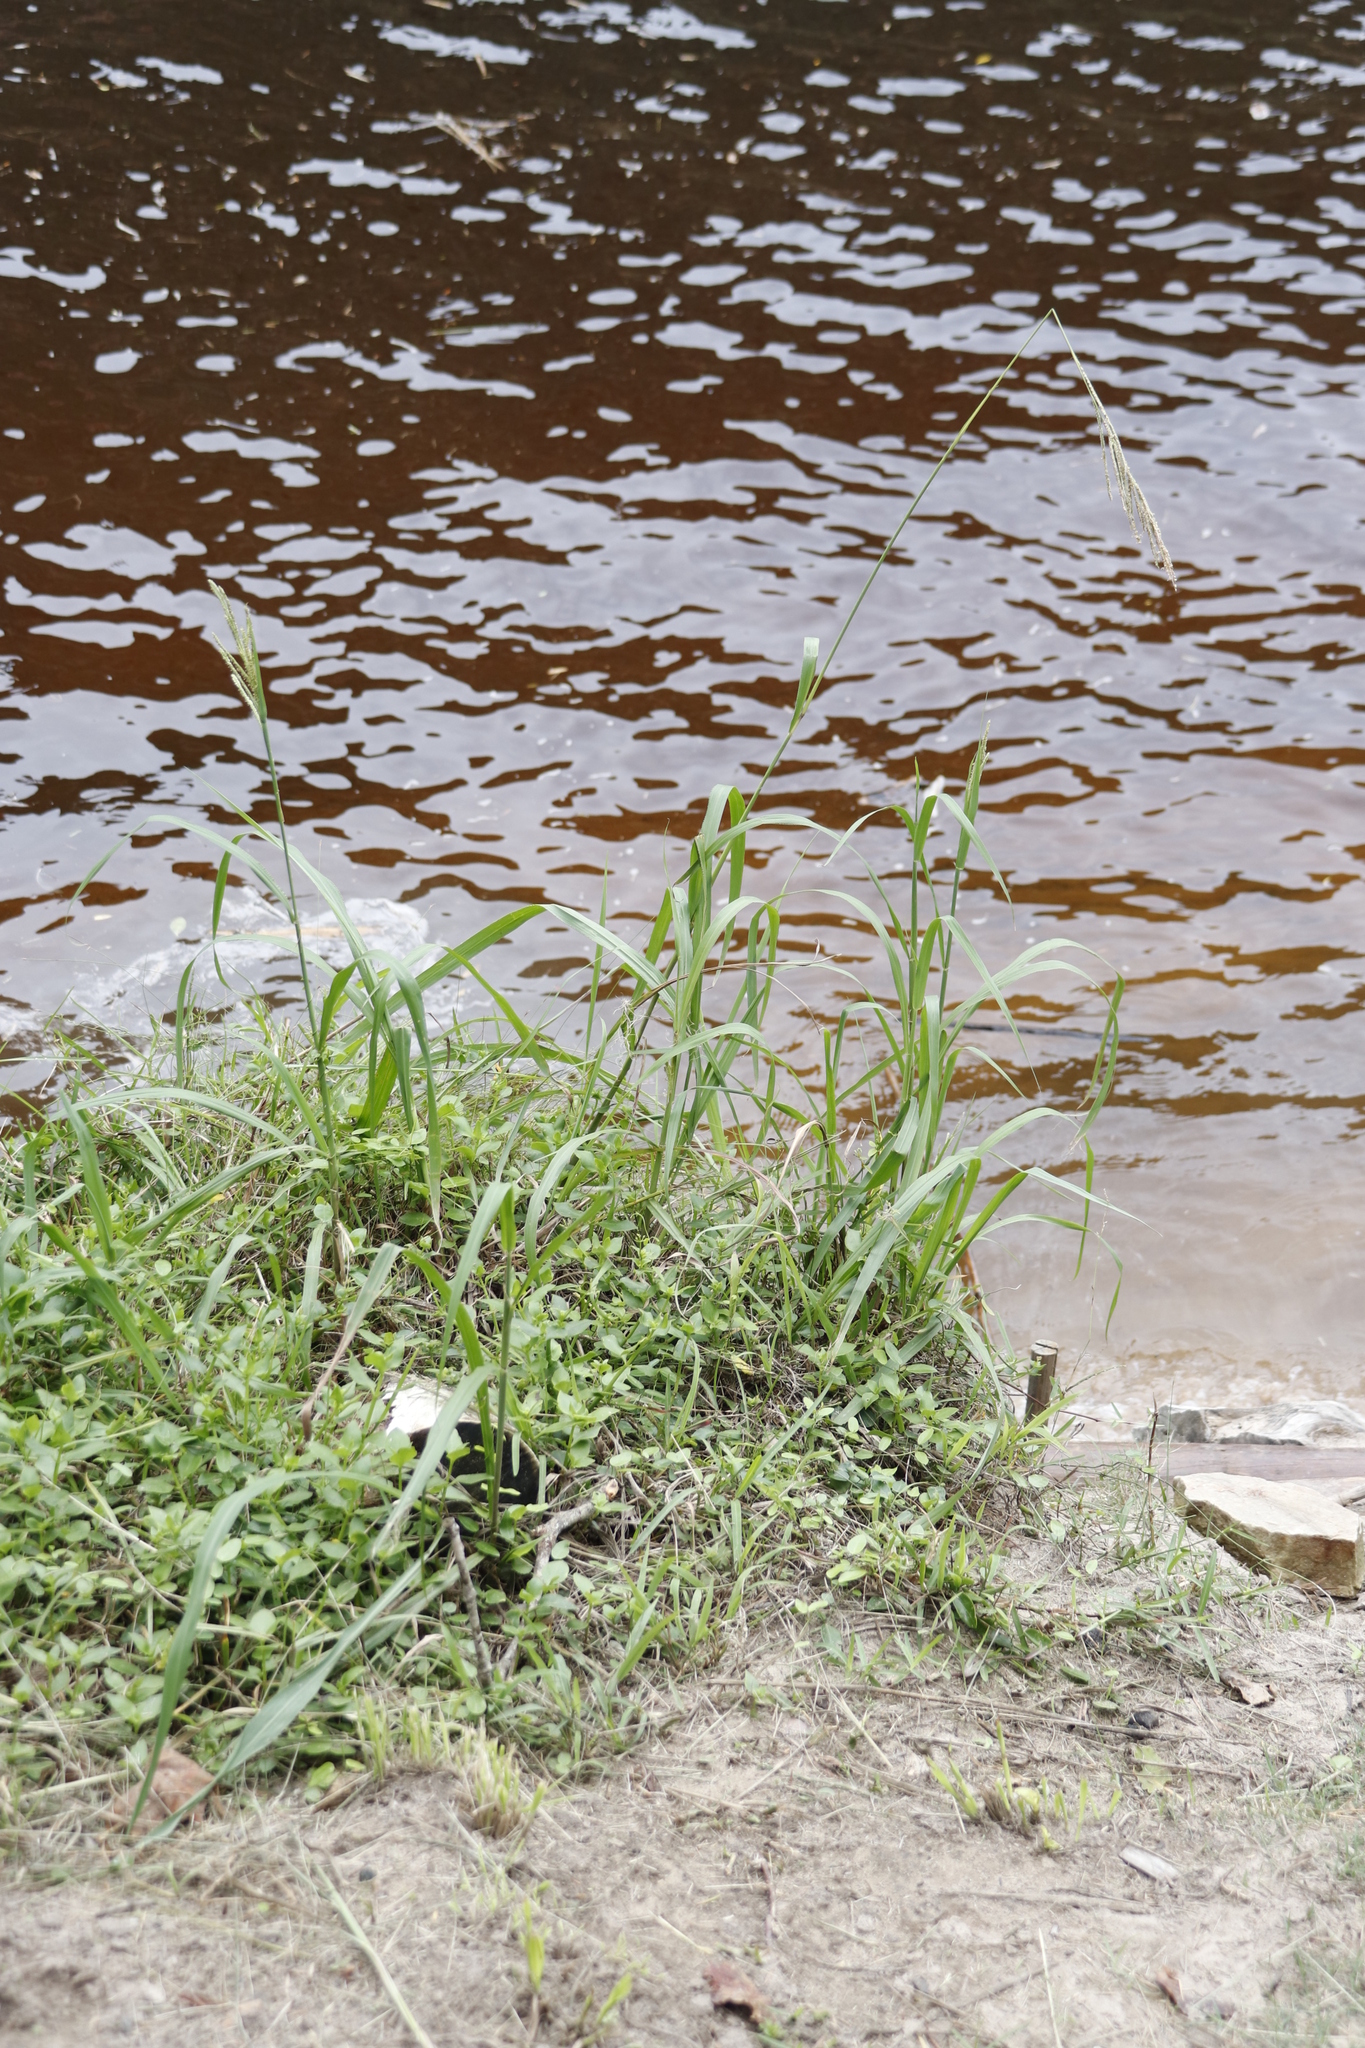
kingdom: Plantae
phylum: Tracheophyta
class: Liliopsida
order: Poales
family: Poaceae
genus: Paspalum
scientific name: Paspalum urvillei
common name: Vasey's grass
